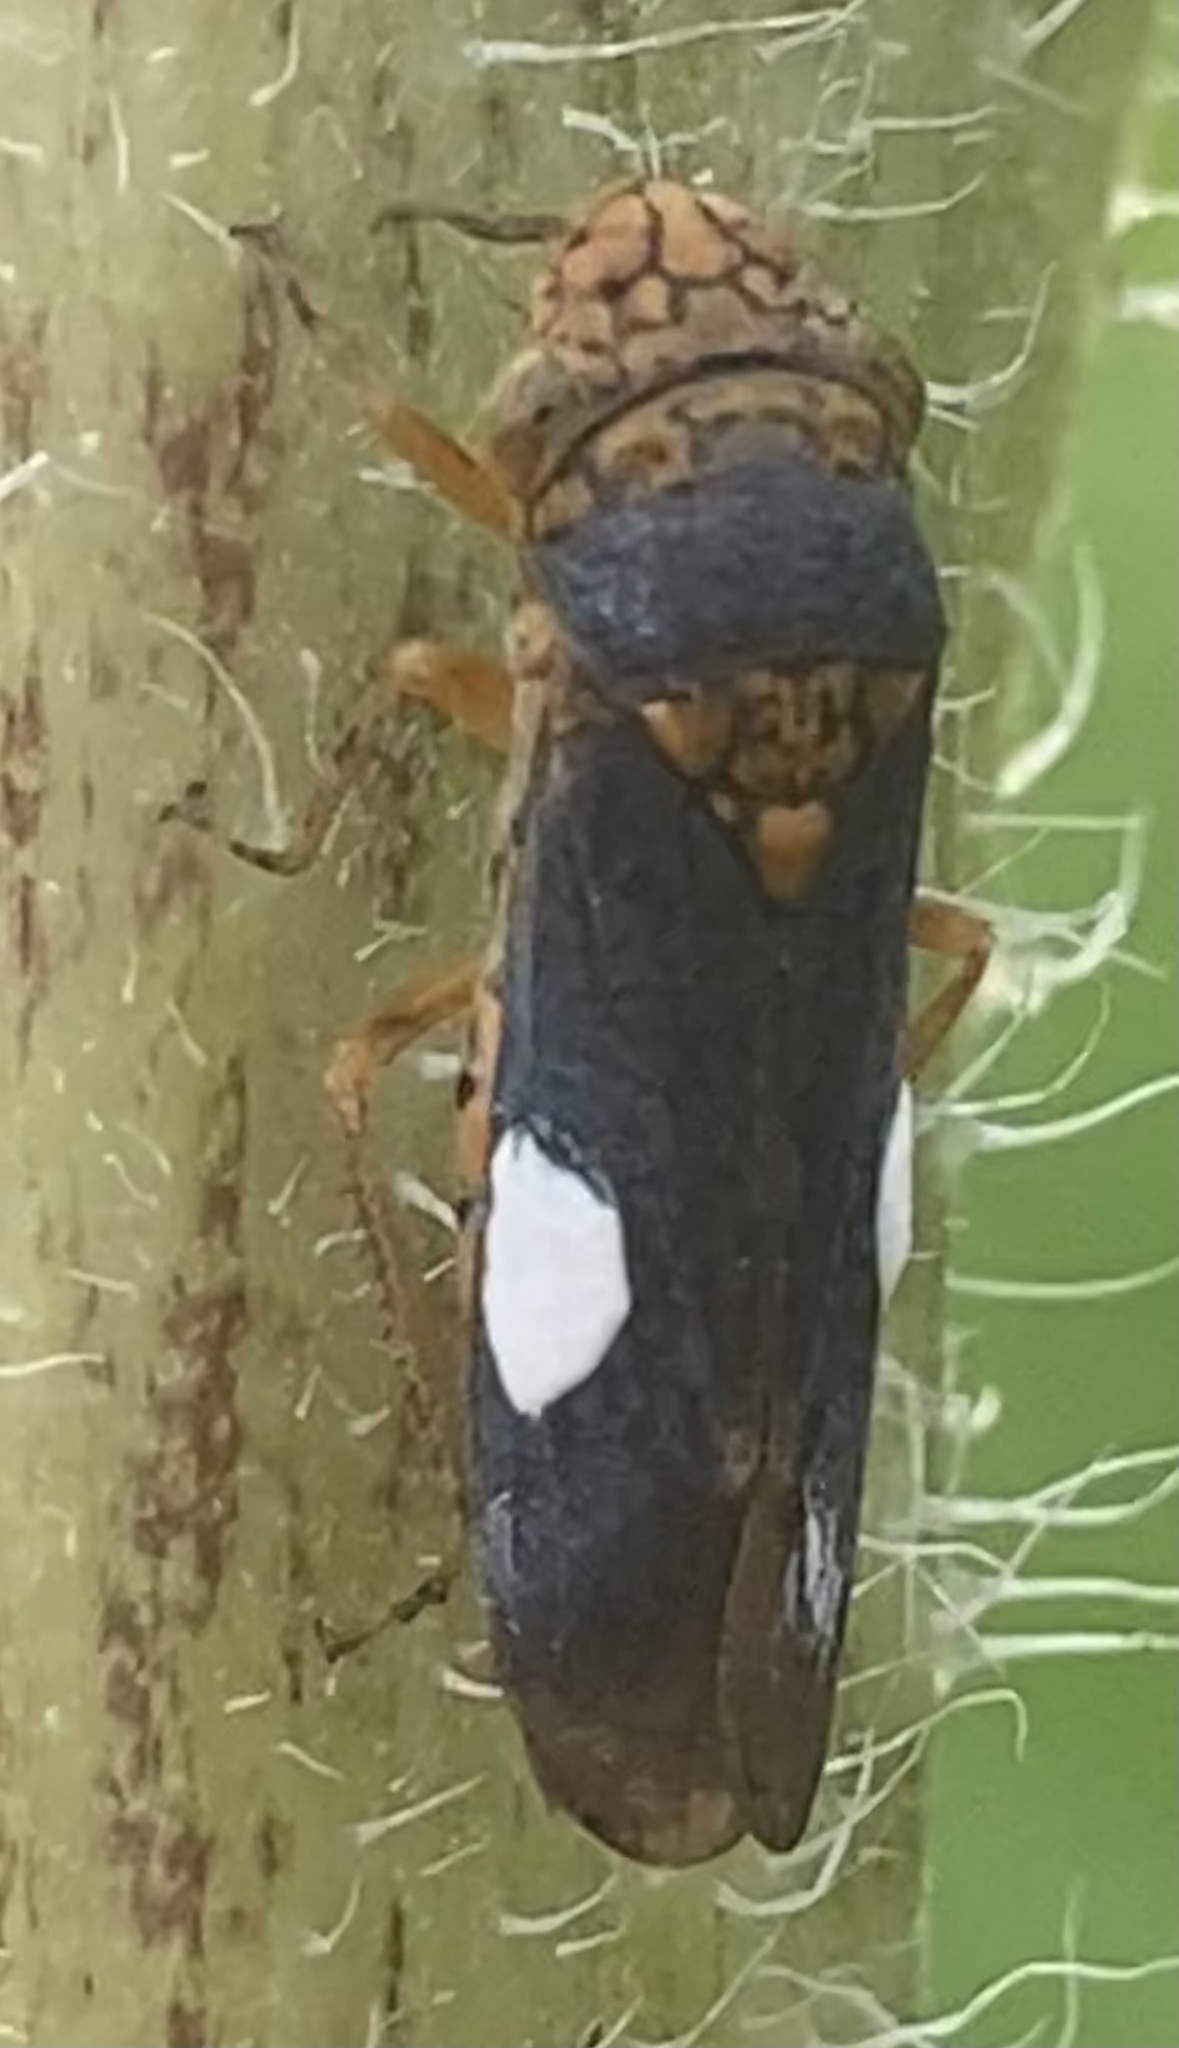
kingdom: Animalia
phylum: Arthropoda
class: Insecta
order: Hemiptera
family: Cicadellidae
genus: Oncometopia
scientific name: Oncometopia orbona
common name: Broad-headed sharpshooter
